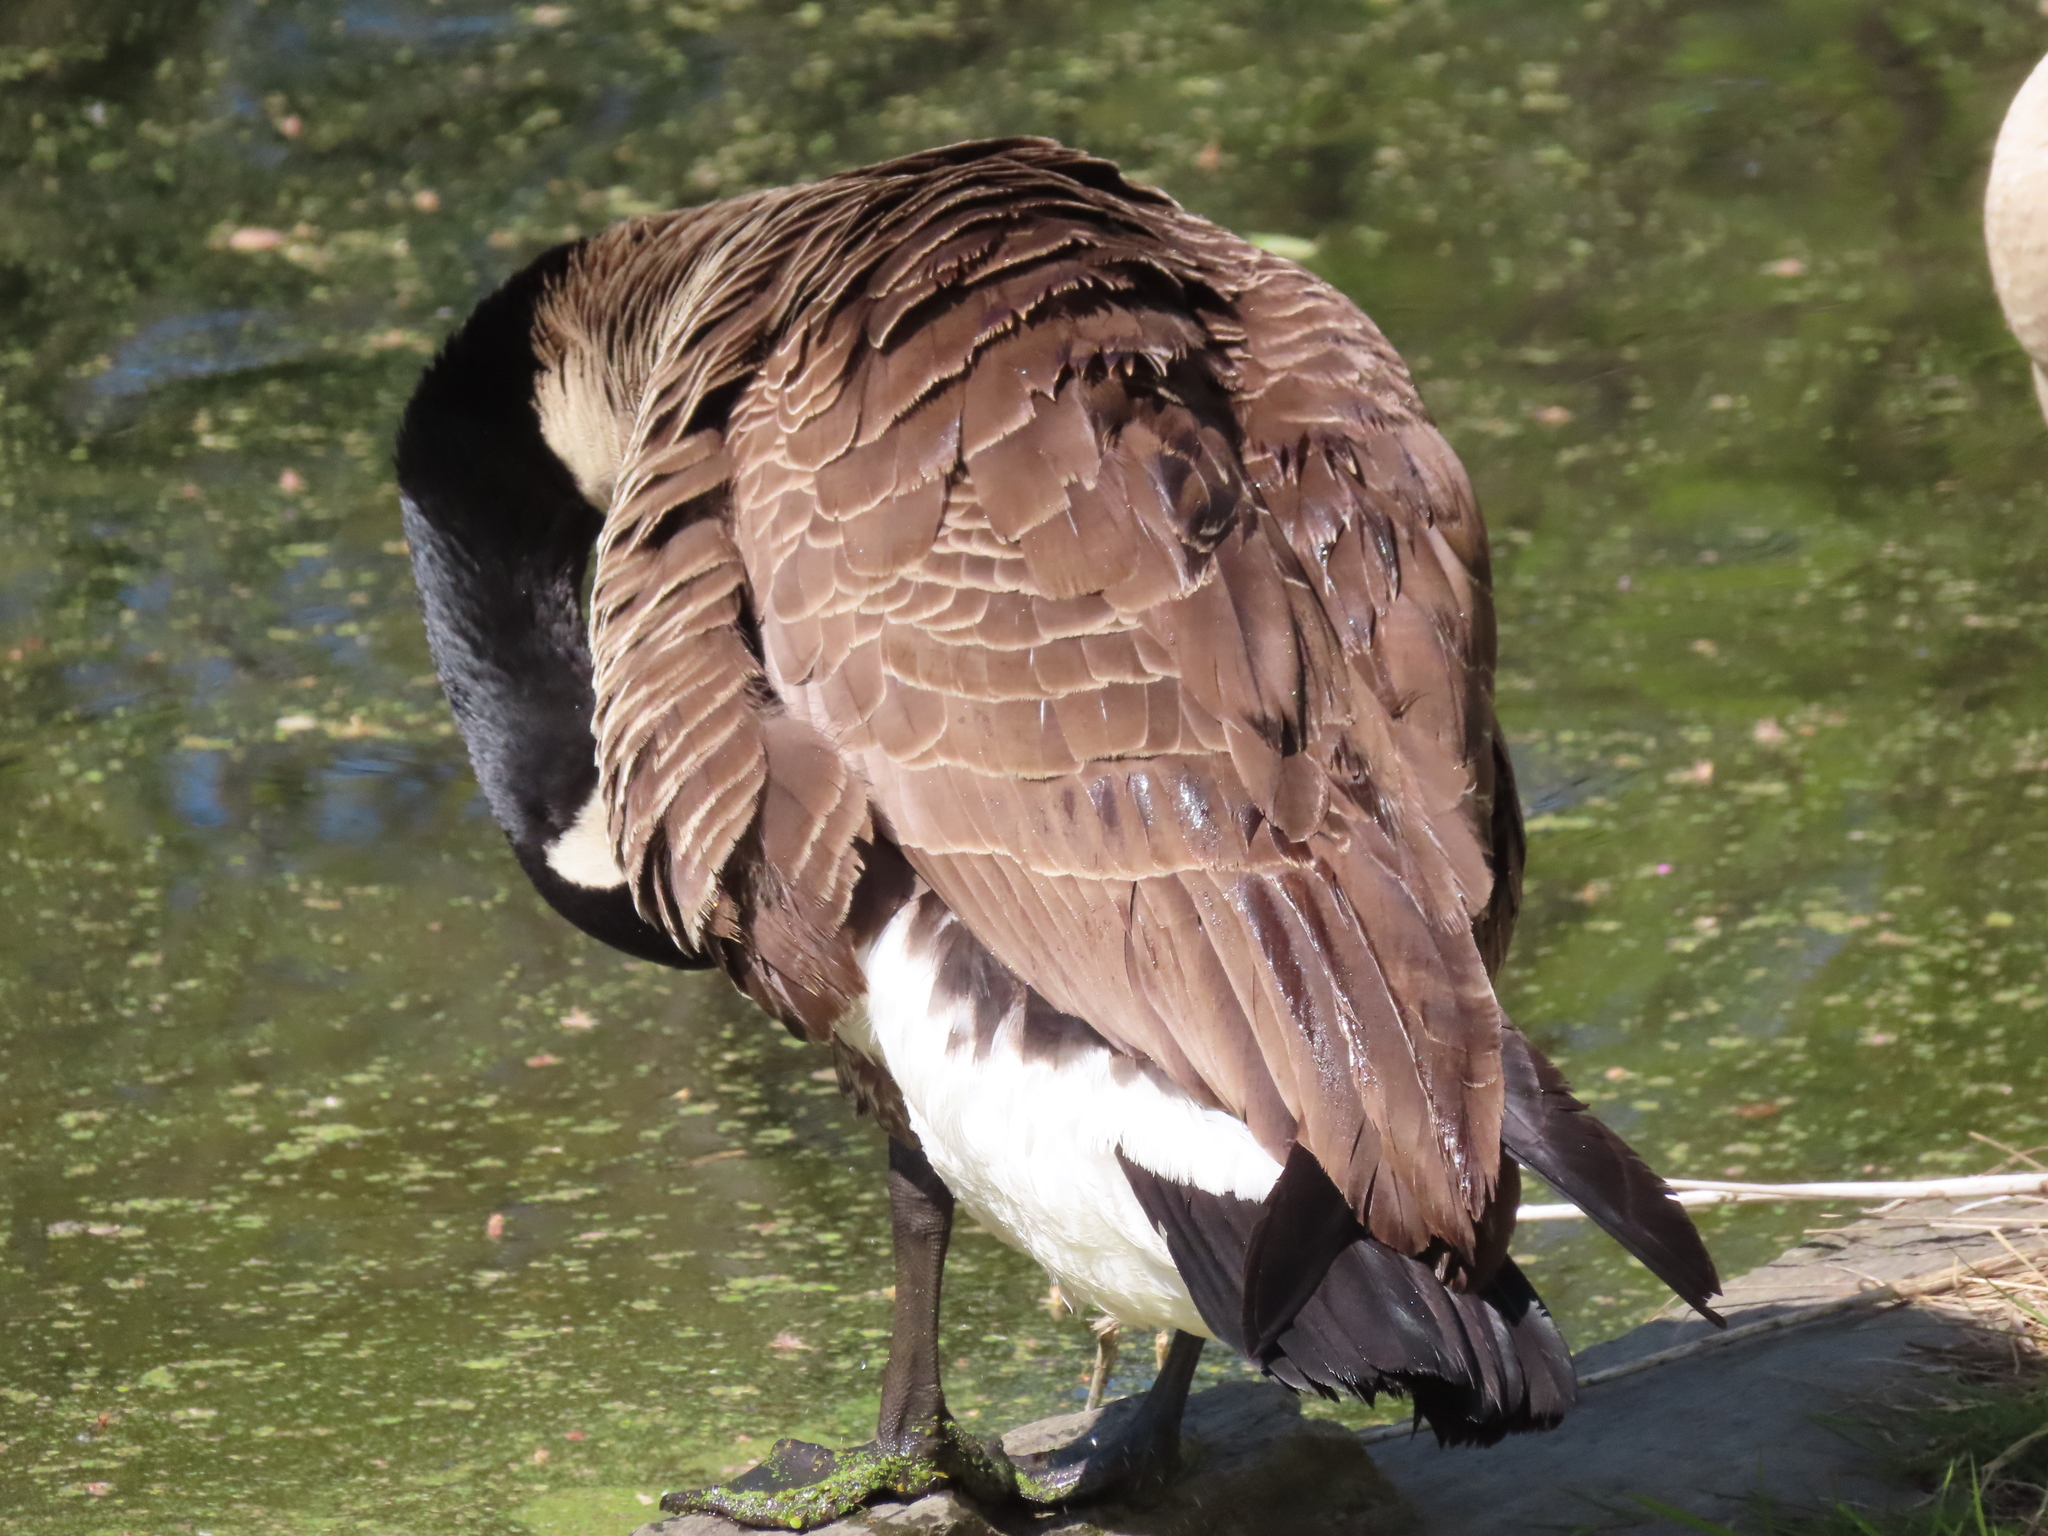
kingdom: Animalia
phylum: Chordata
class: Aves
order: Anseriformes
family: Anatidae
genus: Branta
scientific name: Branta canadensis
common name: Canada goose
